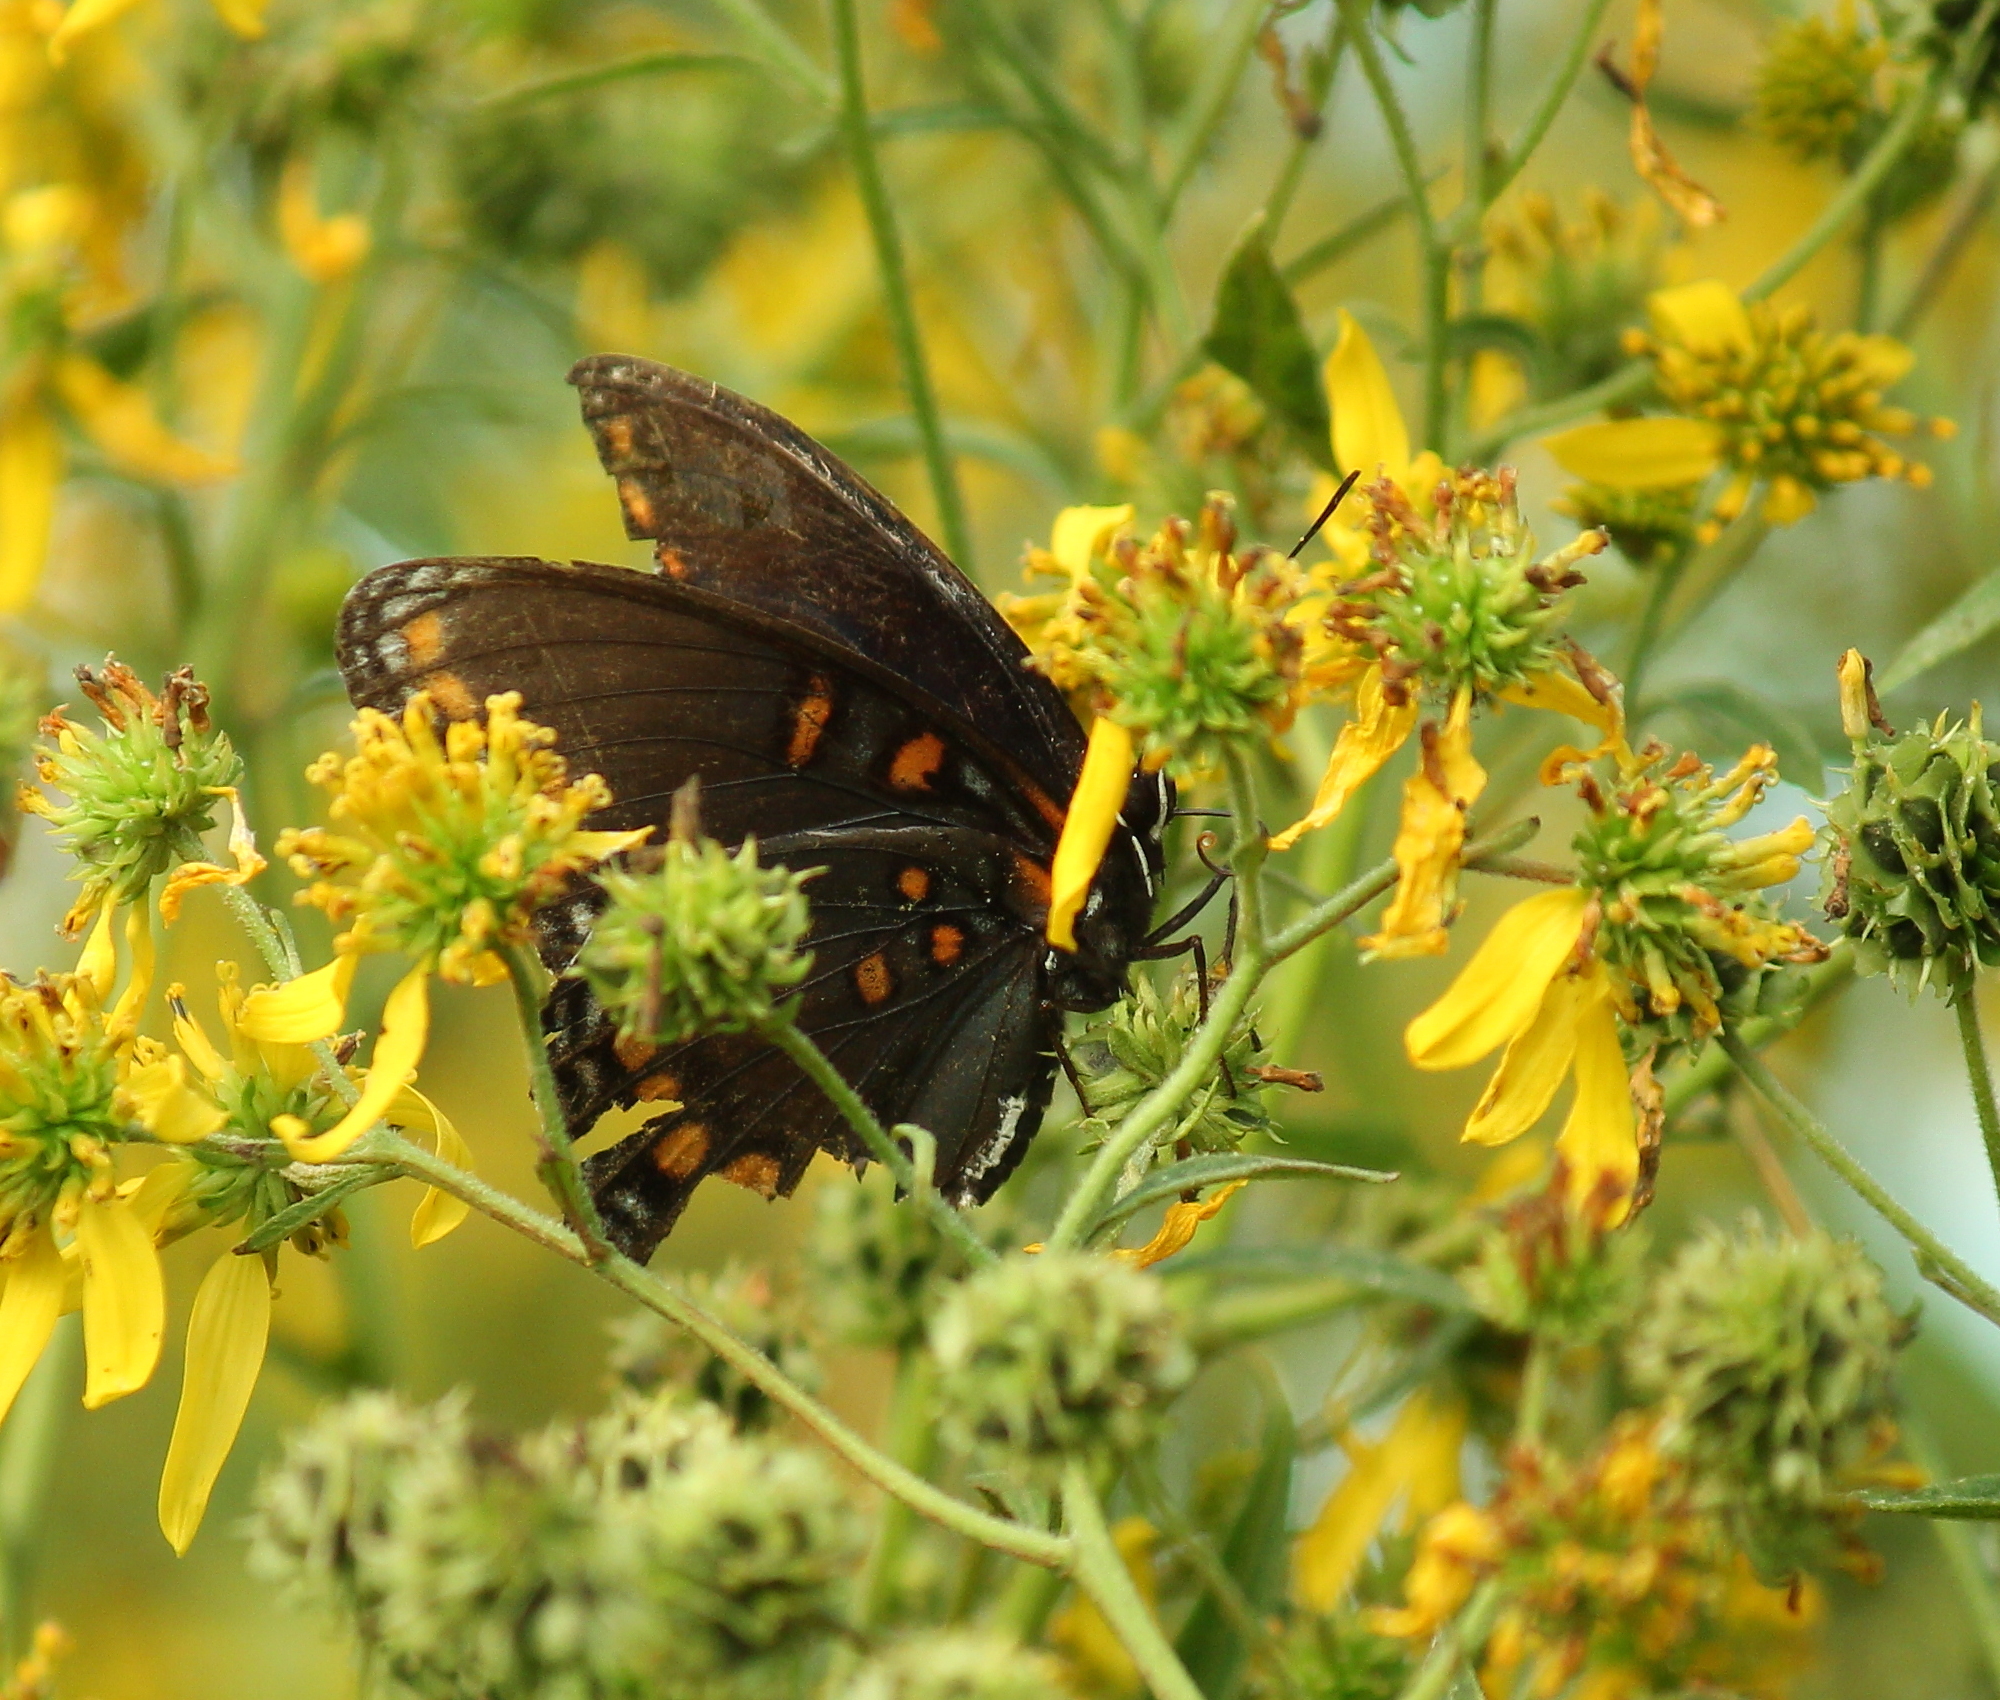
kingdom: Animalia
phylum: Arthropoda
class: Insecta
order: Lepidoptera
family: Nymphalidae
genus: Limenitis
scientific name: Limenitis astyanax
